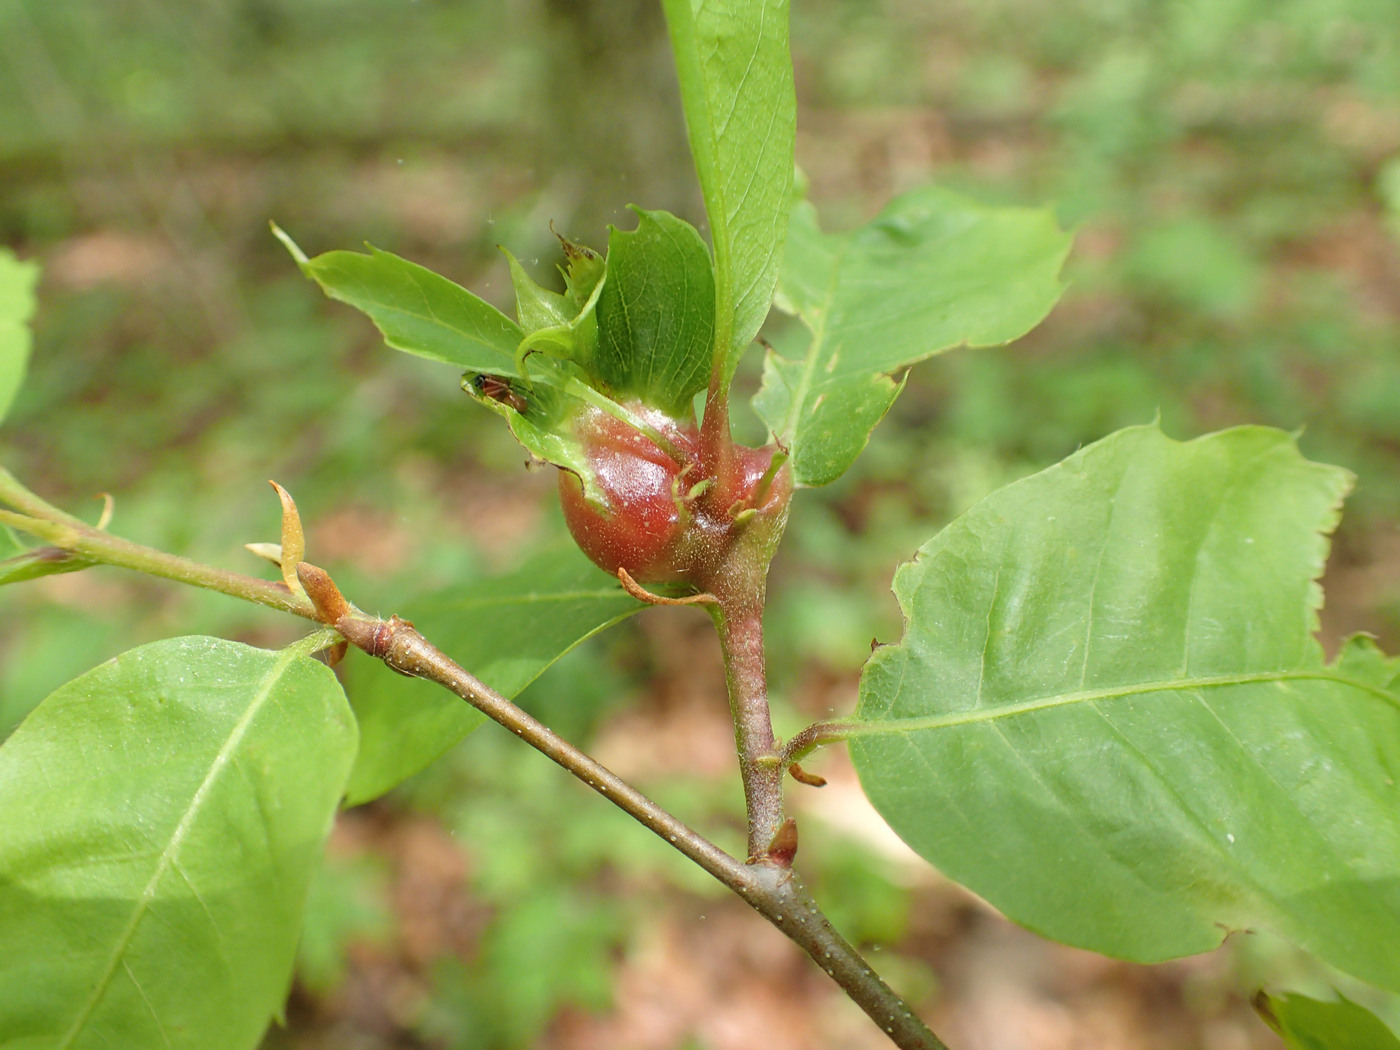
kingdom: Animalia
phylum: Arthropoda
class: Insecta
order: Hymenoptera
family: Cynipidae
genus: Dryocosmus
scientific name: Dryocosmus kuriphilus
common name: Asian chestnut gall wasp
